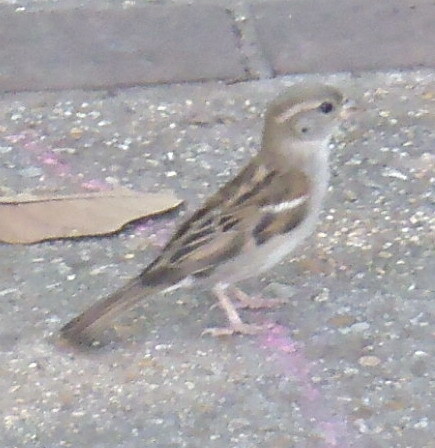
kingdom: Animalia
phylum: Chordata
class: Aves
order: Passeriformes
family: Passeridae
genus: Passer
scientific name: Passer domesticus
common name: House sparrow
